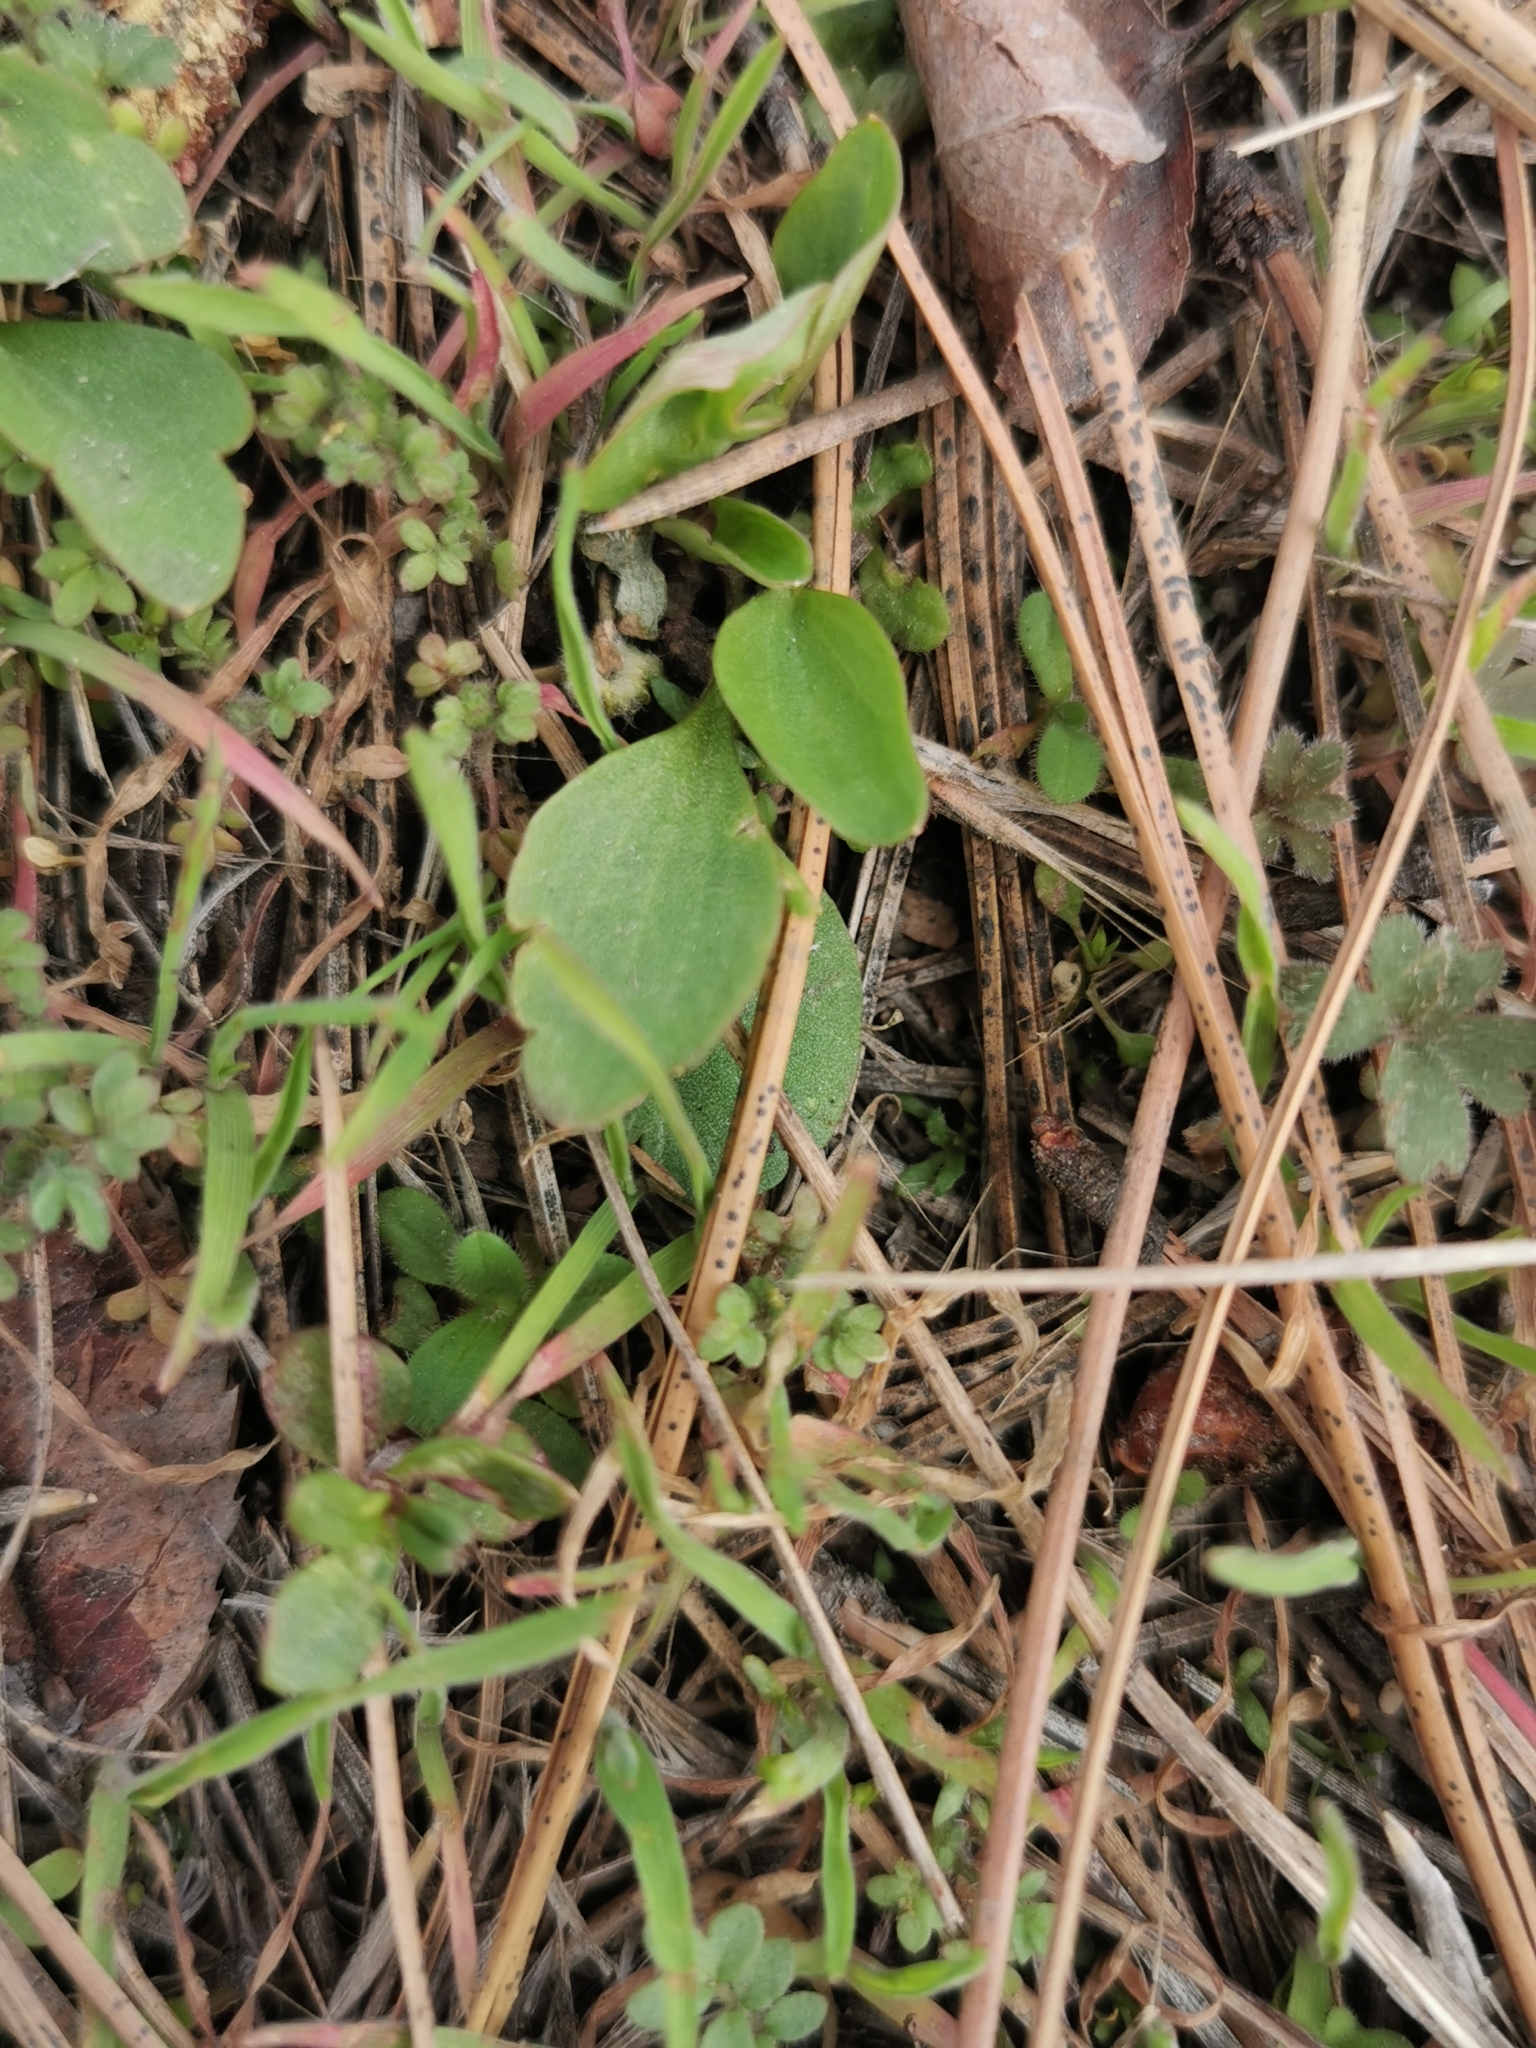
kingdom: Plantae
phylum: Tracheophyta
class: Magnoliopsida
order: Ranunculales
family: Ranunculaceae
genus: Ranunculus
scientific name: Ranunculus glaberrimus
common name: Sagebrush buttercup
